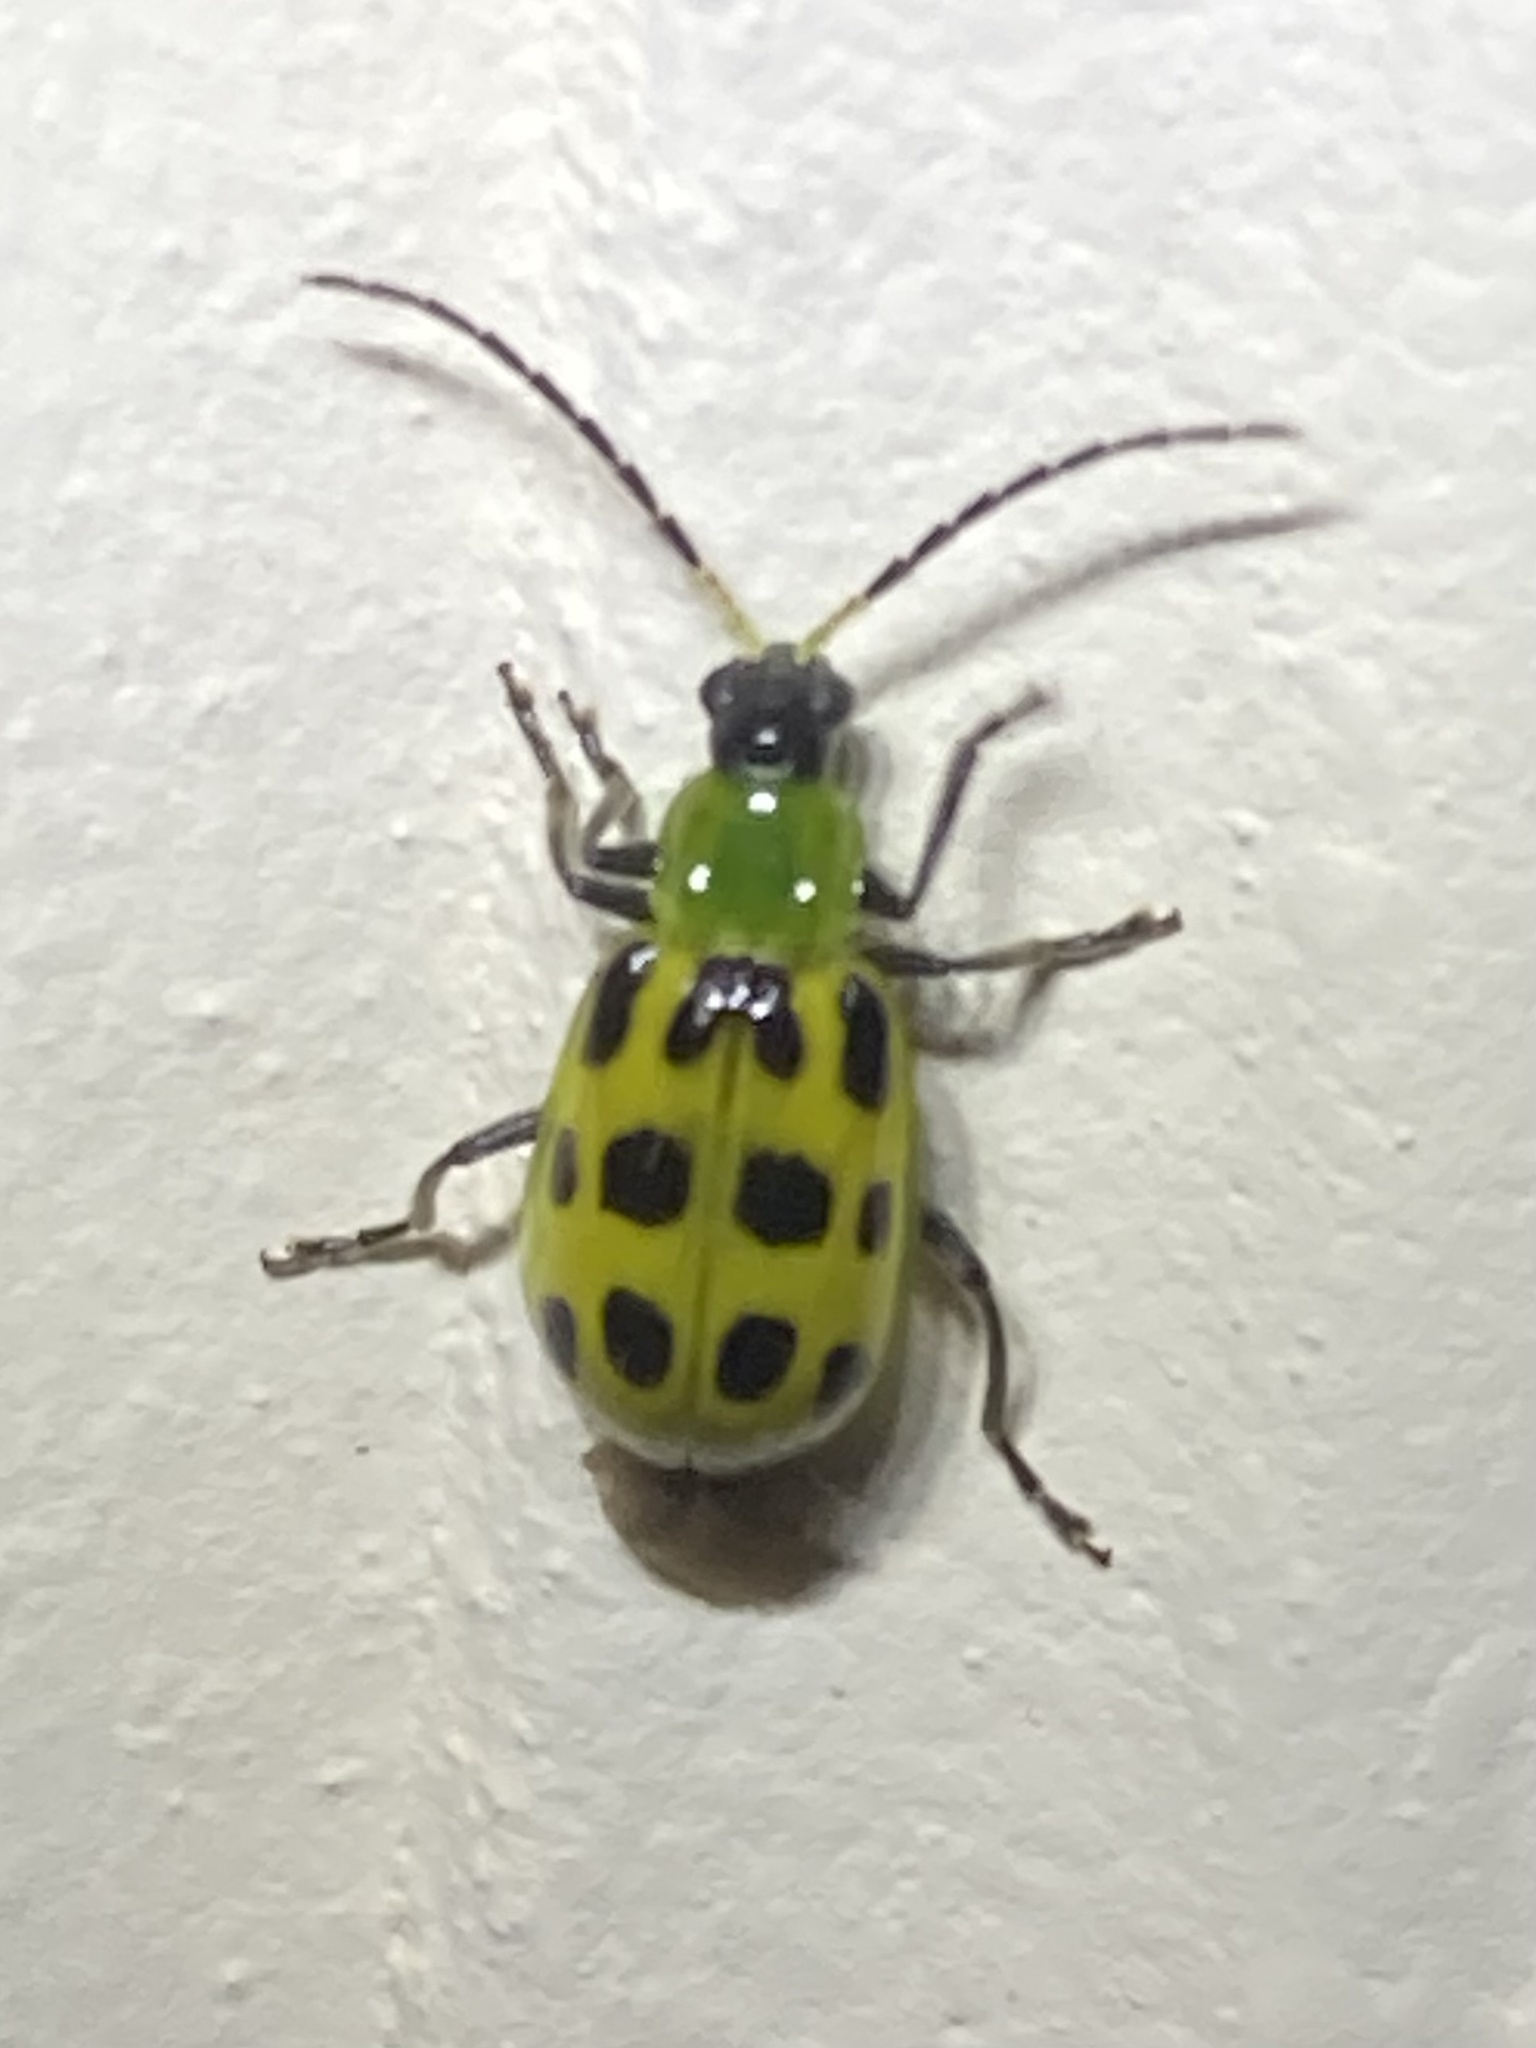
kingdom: Animalia
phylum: Arthropoda
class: Insecta
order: Coleoptera
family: Chrysomelidae
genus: Diabrotica
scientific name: Diabrotica undecimpunctata
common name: Spotted cucumber beetle
